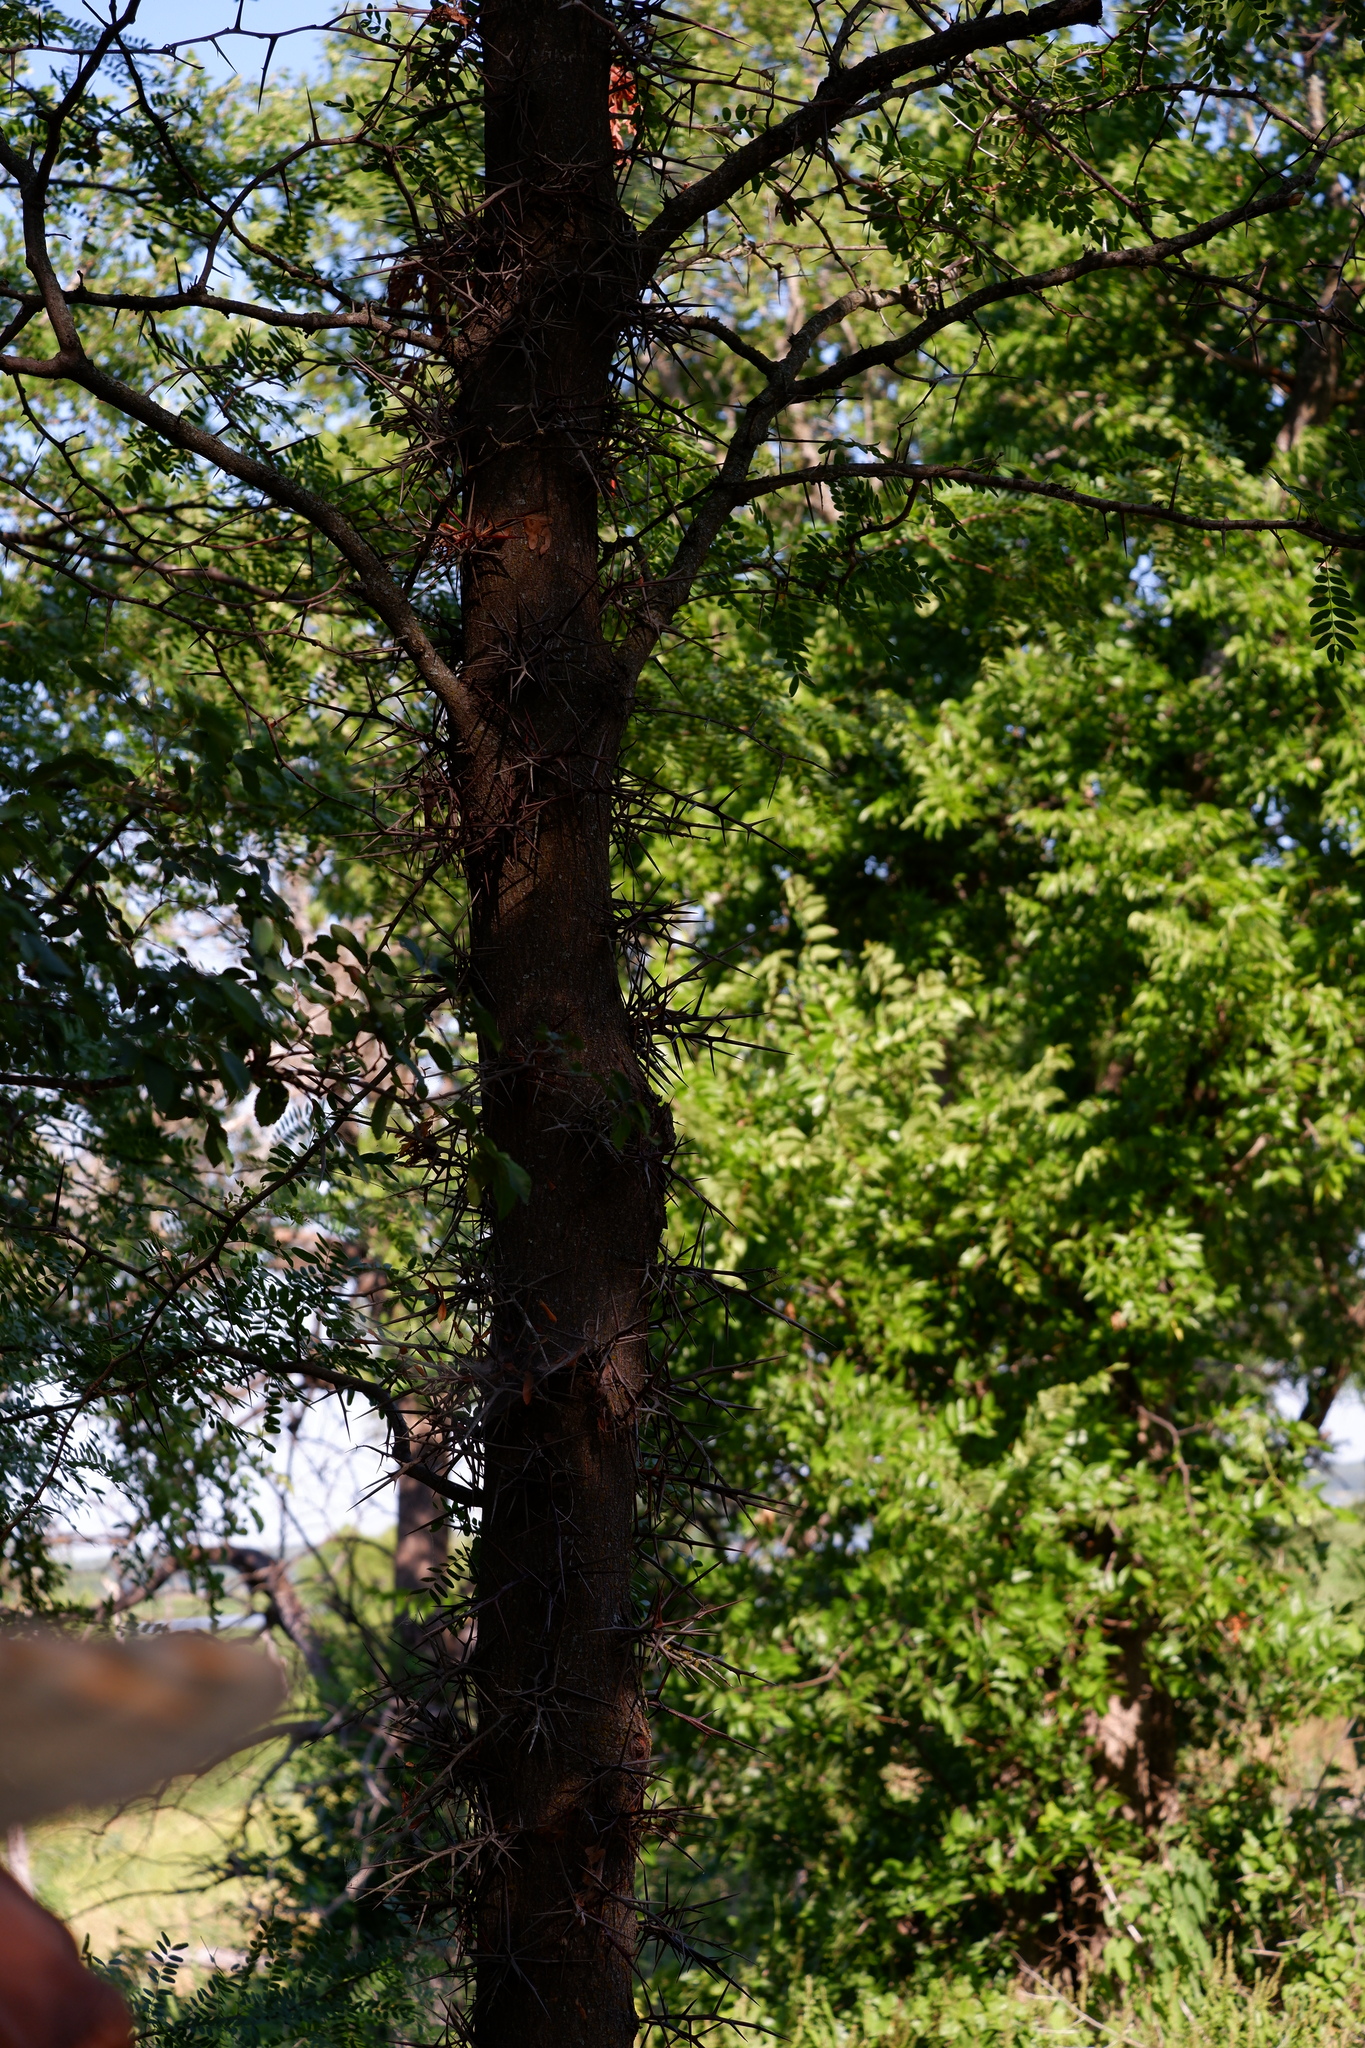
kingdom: Plantae
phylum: Tracheophyta
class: Magnoliopsida
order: Fabales
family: Fabaceae
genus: Gleditsia
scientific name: Gleditsia triacanthos
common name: Common honeylocust
